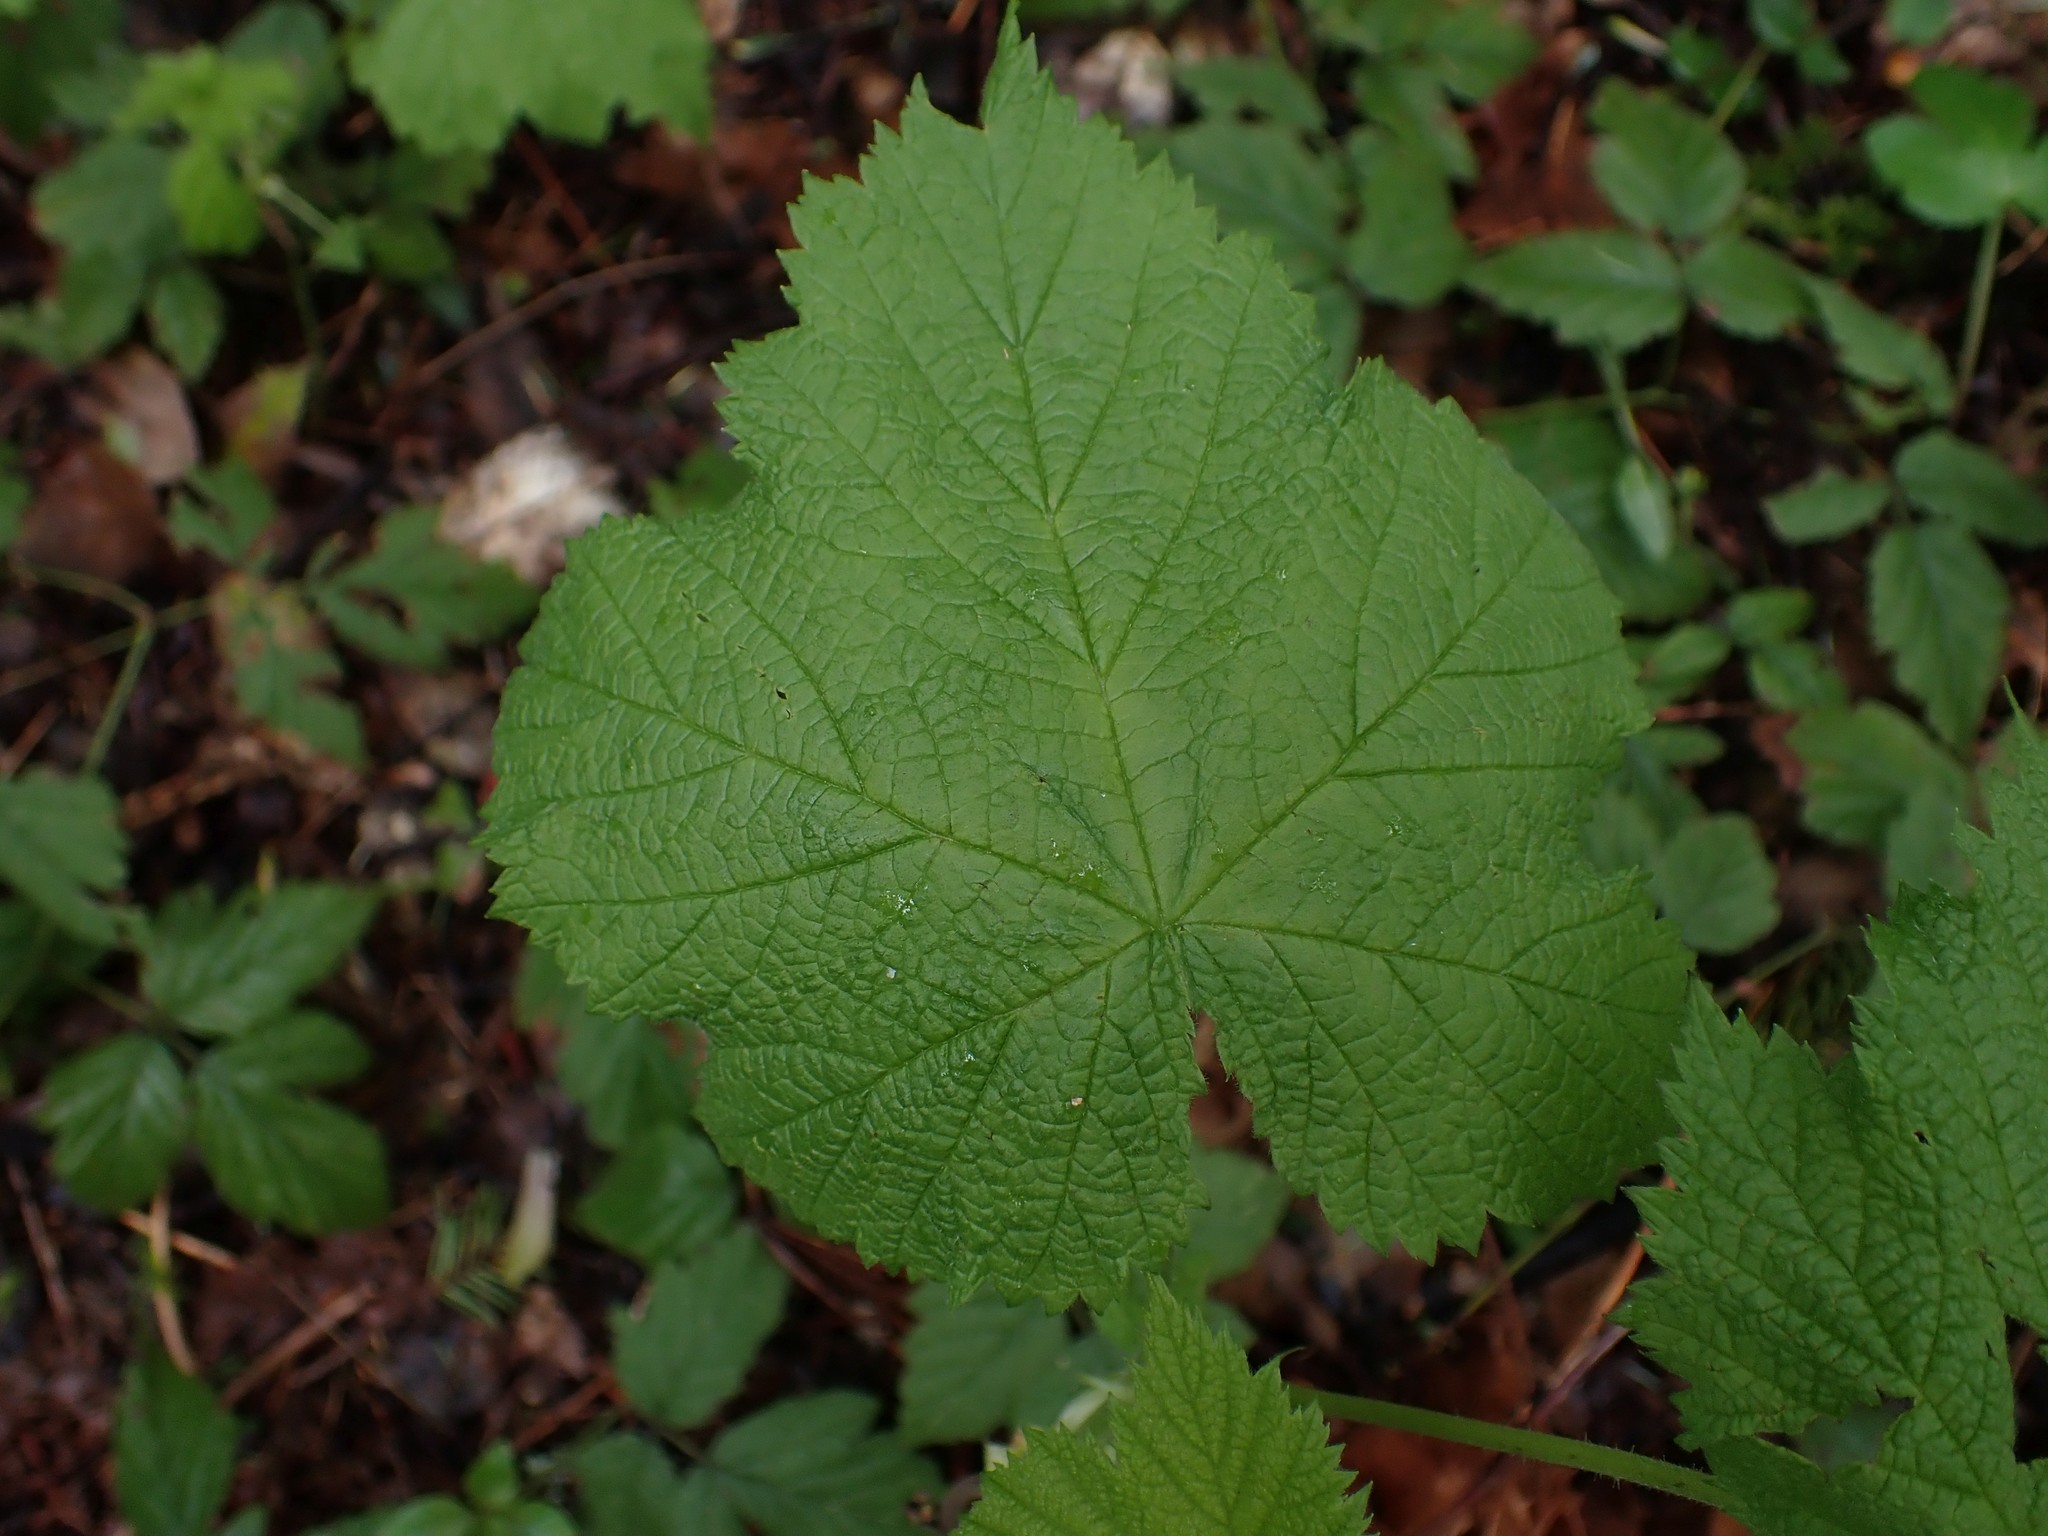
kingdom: Plantae
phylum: Tracheophyta
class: Magnoliopsida
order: Rosales
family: Rosaceae
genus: Rubus
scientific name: Rubus parviflorus
